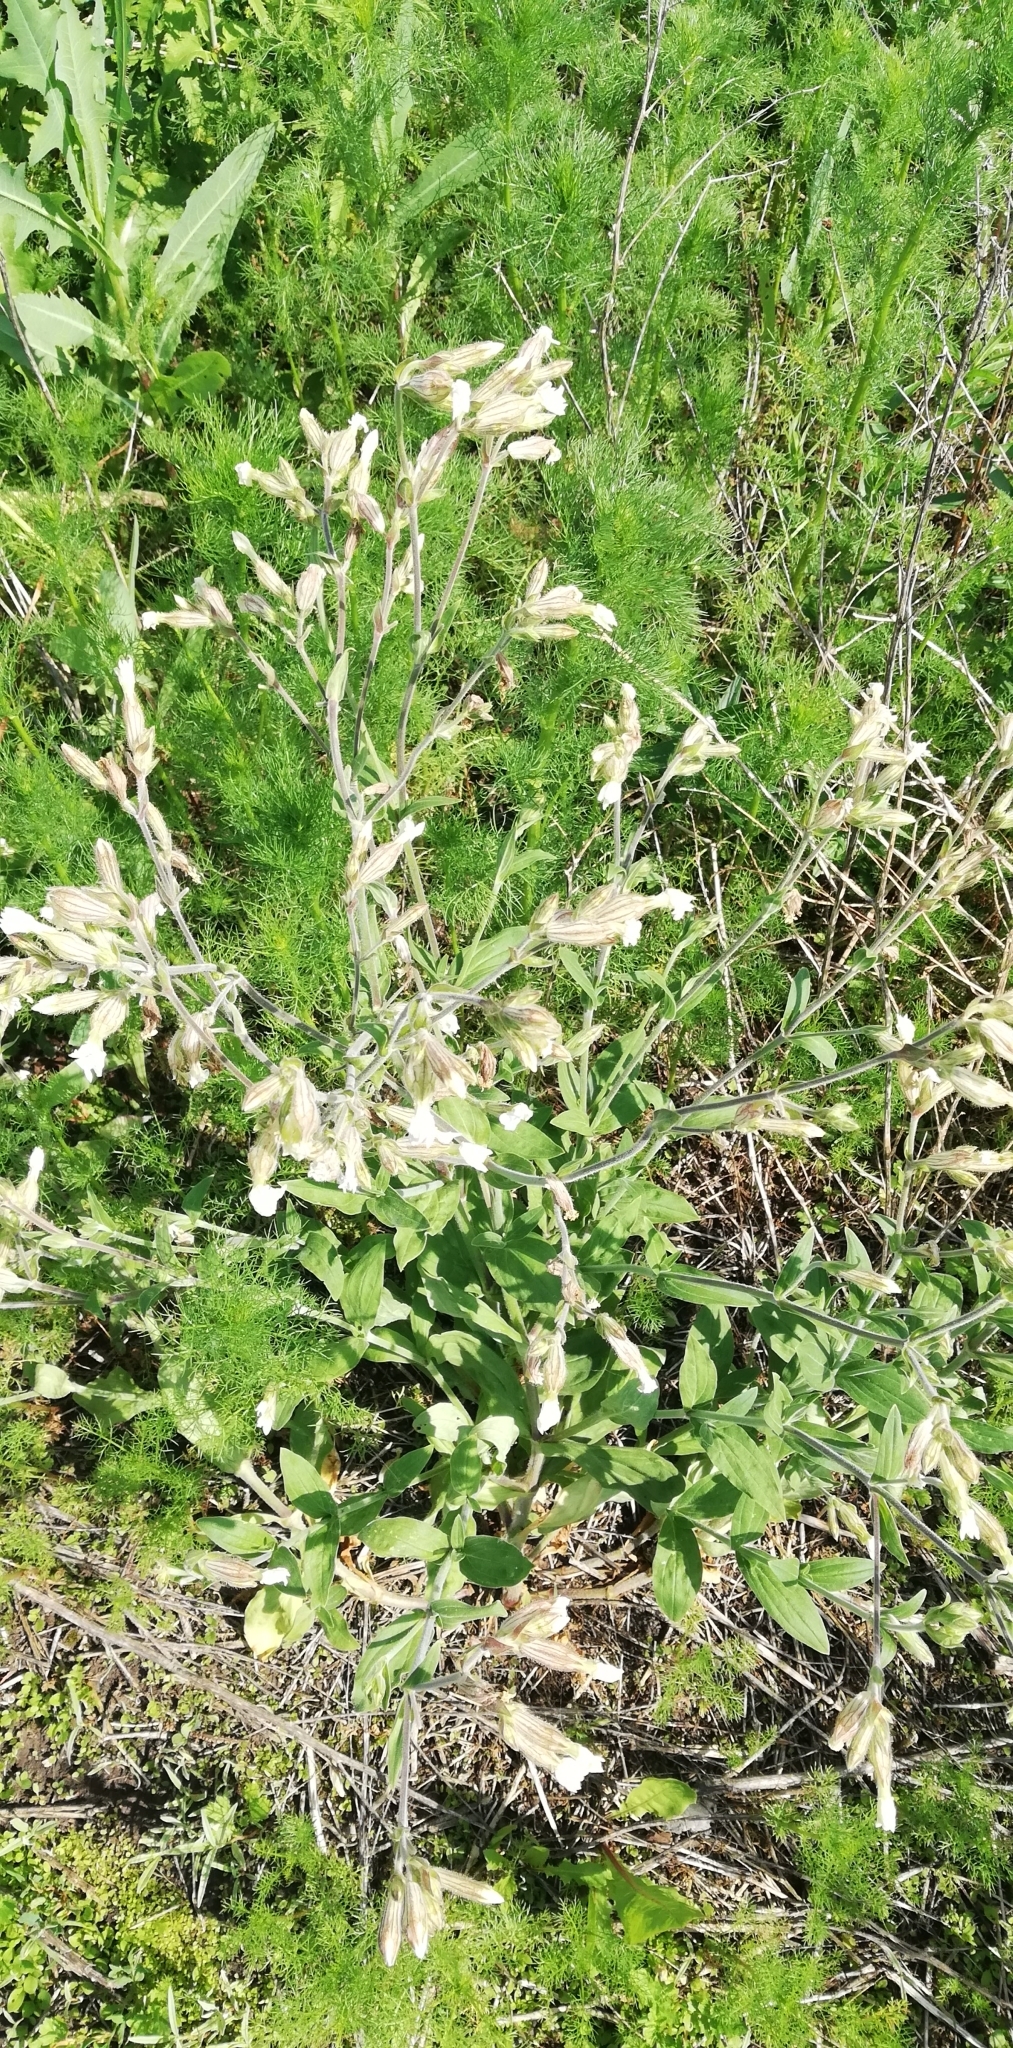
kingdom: Plantae
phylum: Tracheophyta
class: Magnoliopsida
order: Caryophyllales
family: Caryophyllaceae
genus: Silene
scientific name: Silene latifolia
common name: White campion
